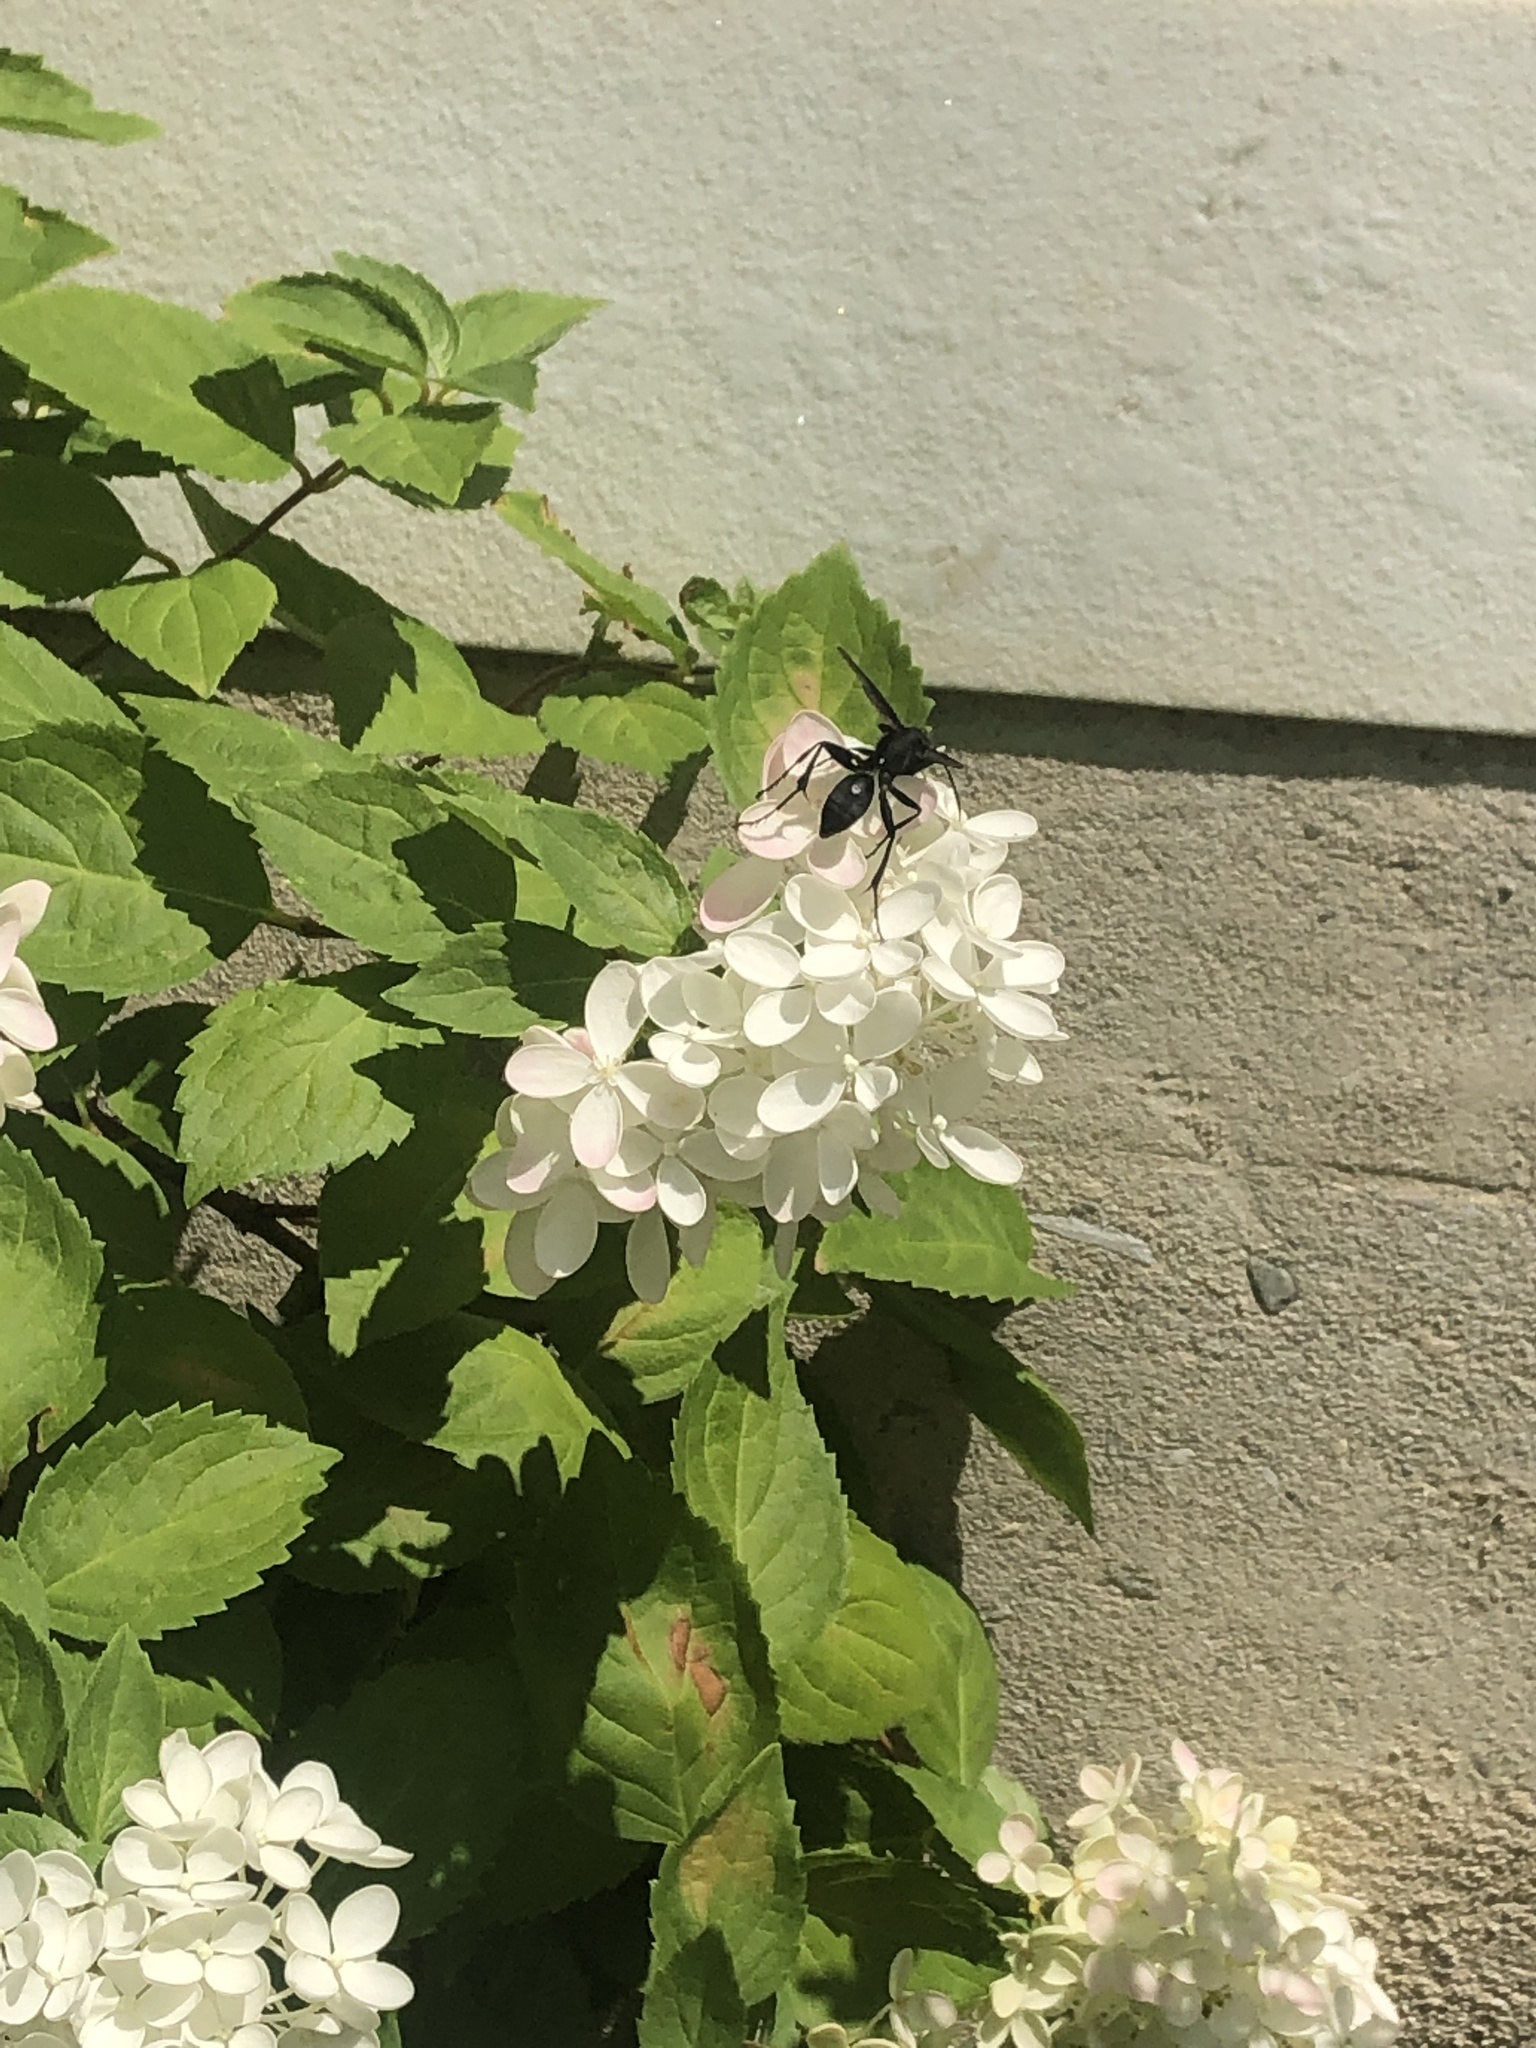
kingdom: Animalia
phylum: Arthropoda
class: Insecta
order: Hymenoptera
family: Sphecidae
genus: Sphex
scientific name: Sphex pensylvanicus
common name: Great black digger wasp
